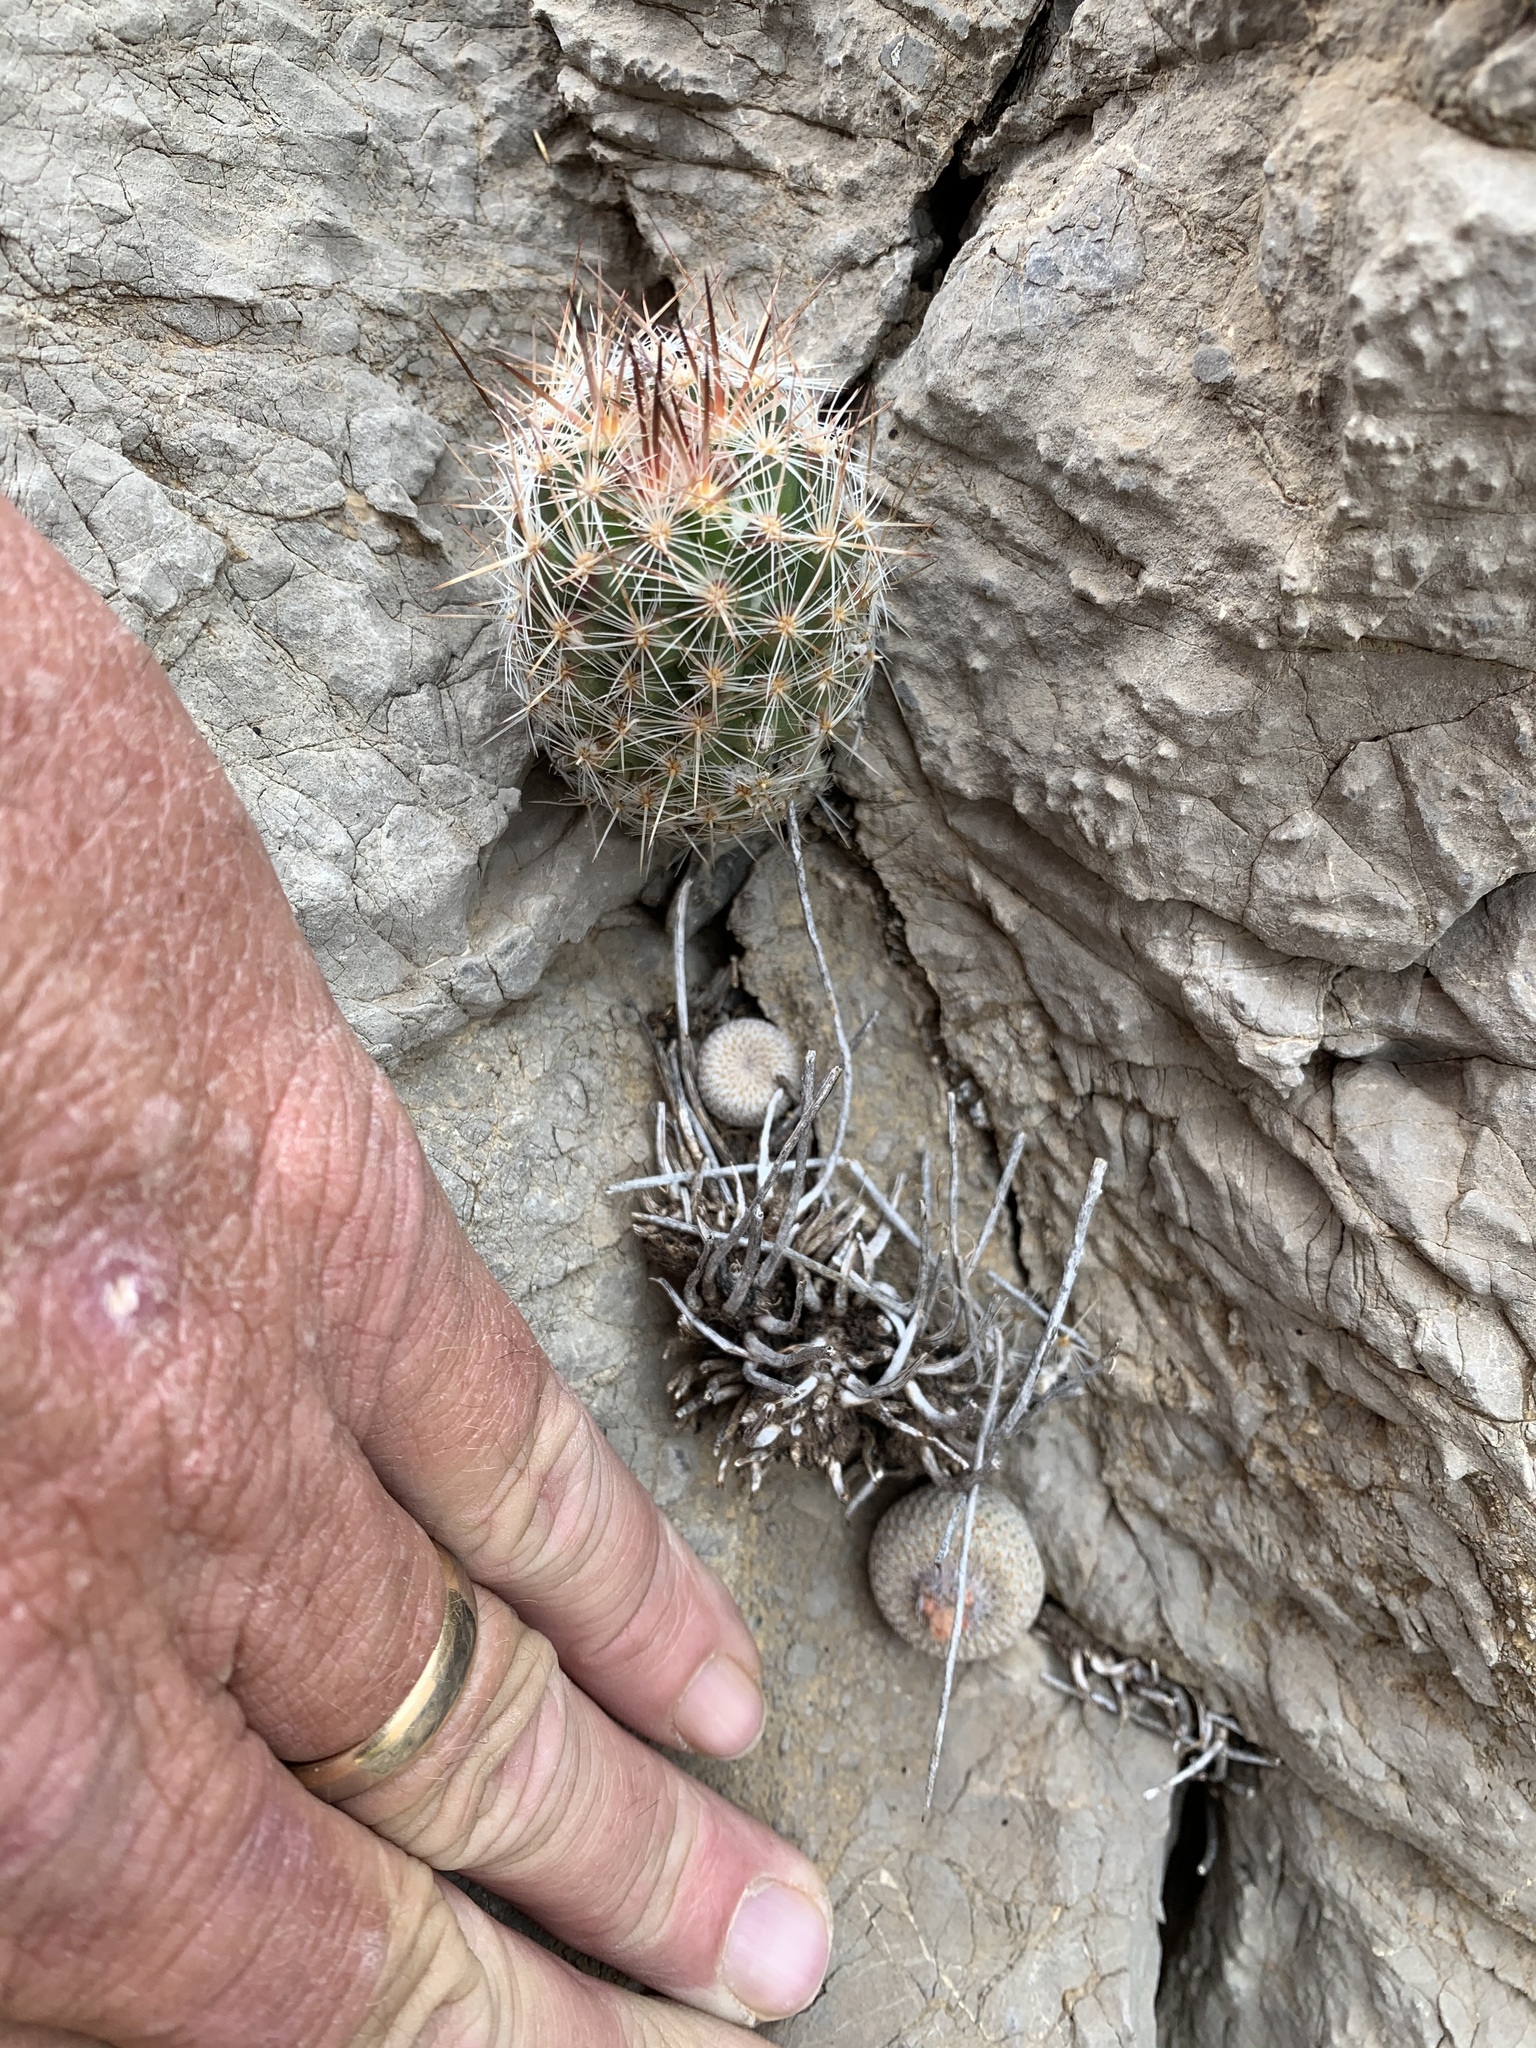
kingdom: Plantae
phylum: Tracheophyta
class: Magnoliopsida
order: Caryophyllales
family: Cactaceae
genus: Pelecyphora
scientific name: Pelecyphora tuberculosa
